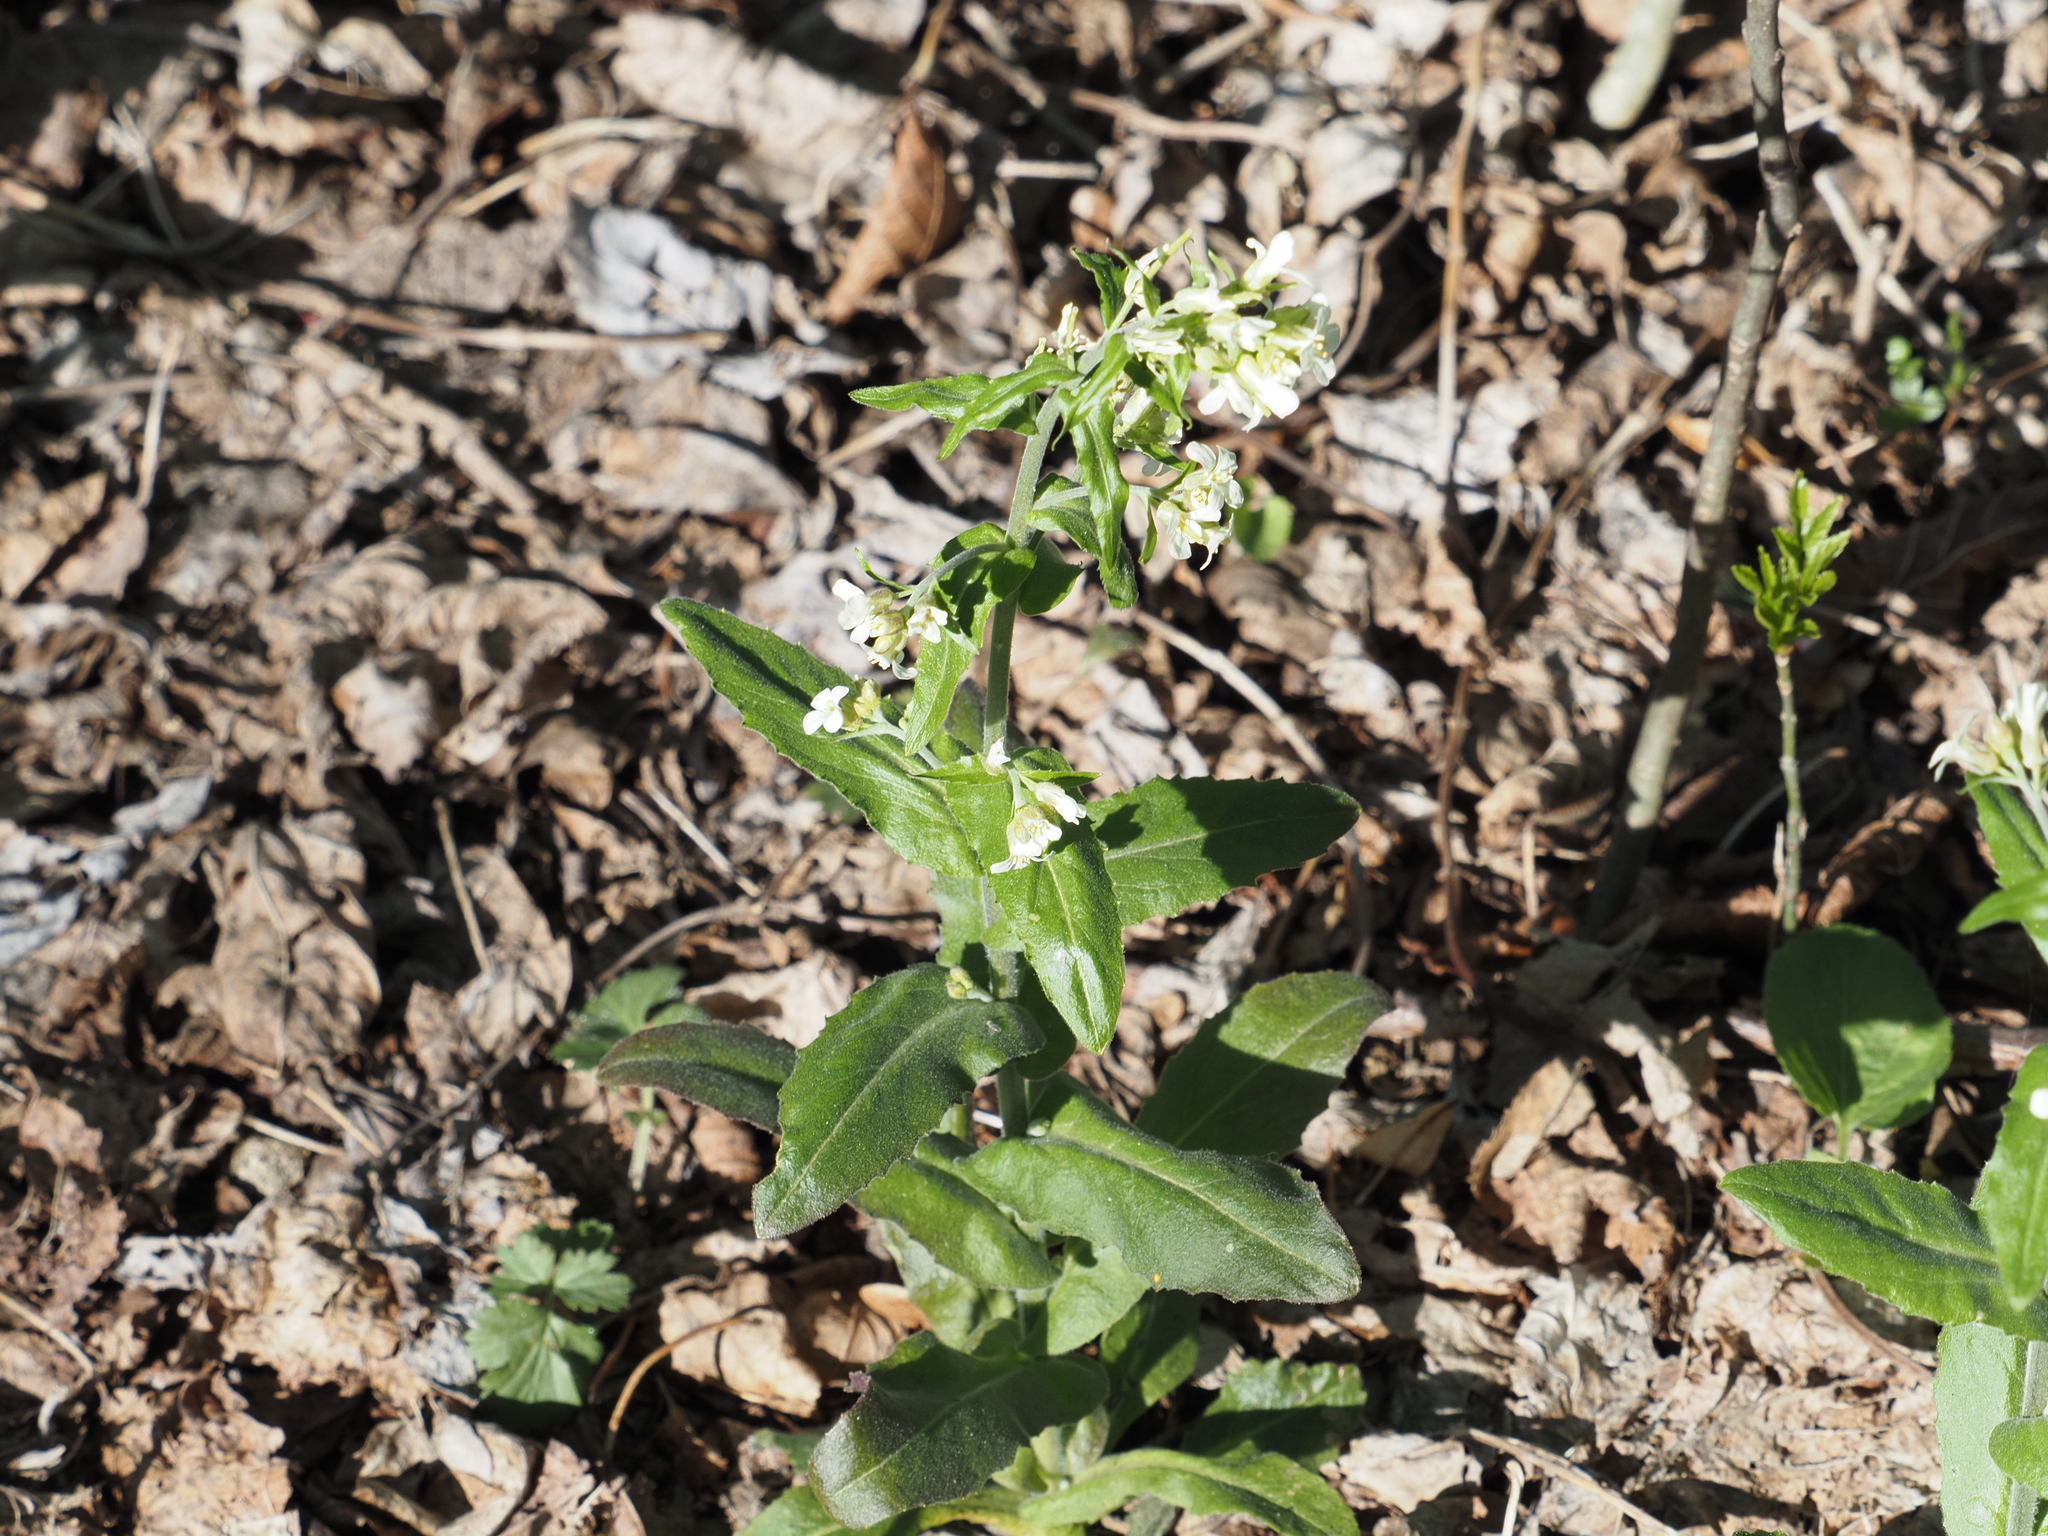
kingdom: Plantae
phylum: Tracheophyta
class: Magnoliopsida
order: Brassicales
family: Brassicaceae
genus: Pseudoturritis
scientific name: Pseudoturritis turrita
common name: Tower cress
